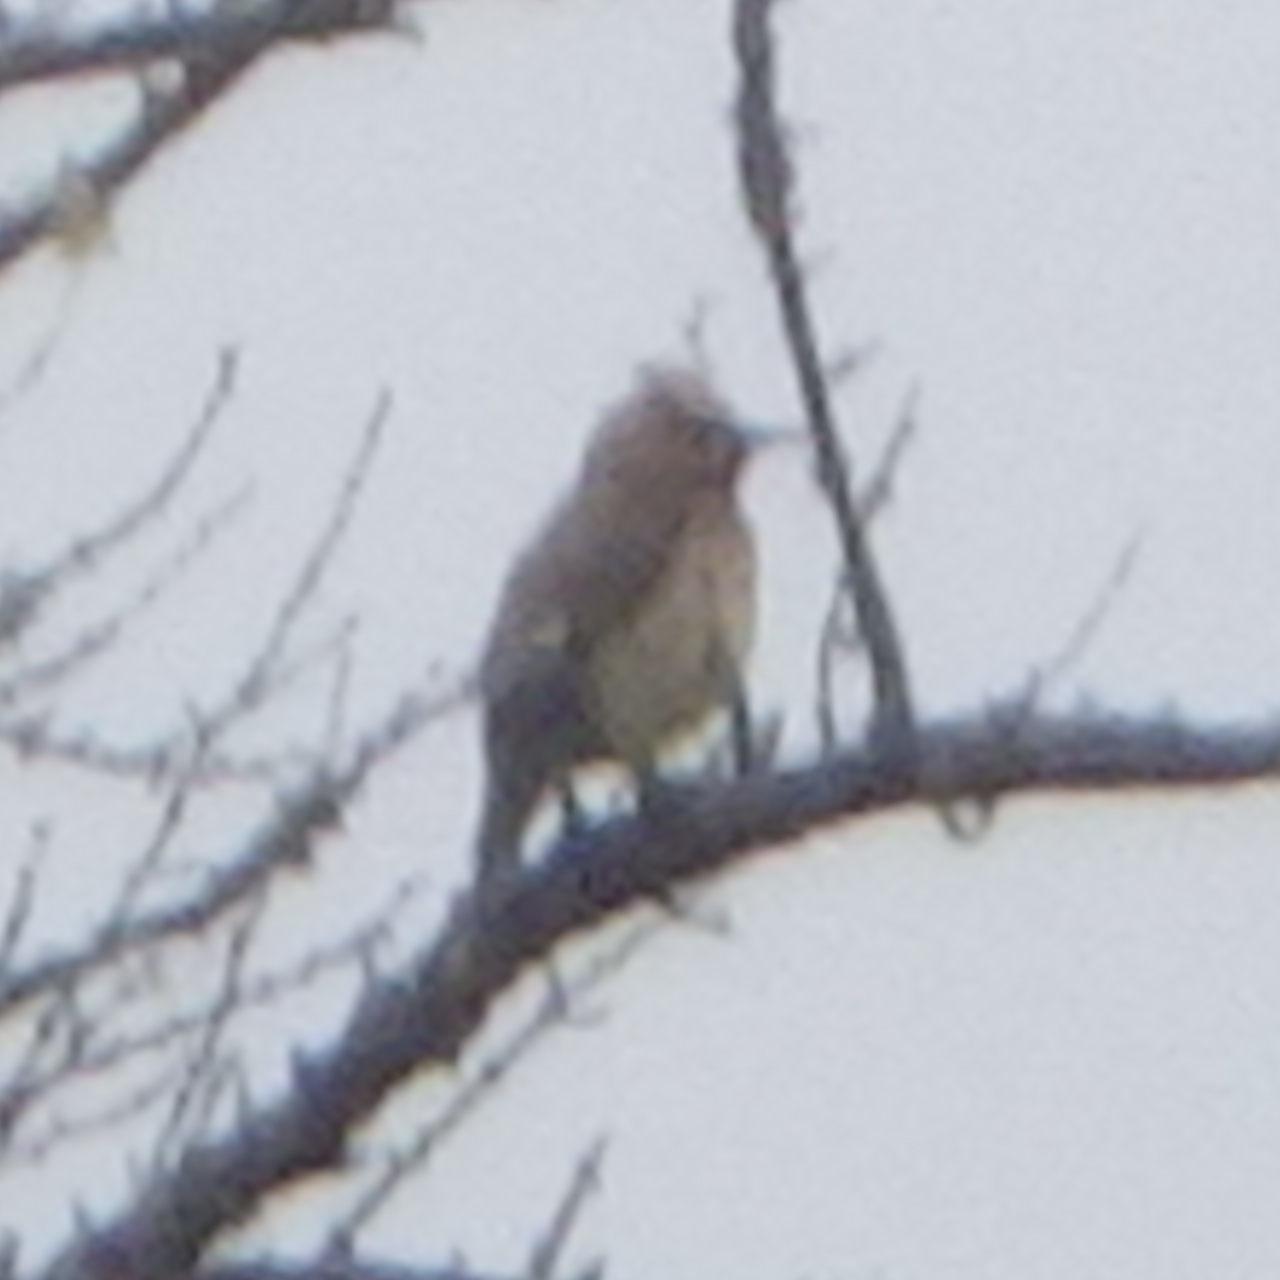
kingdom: Animalia
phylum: Chordata
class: Aves
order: Passeriformes
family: Bombycillidae
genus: Bombycilla
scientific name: Bombycilla cedrorum
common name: Cedar waxwing
